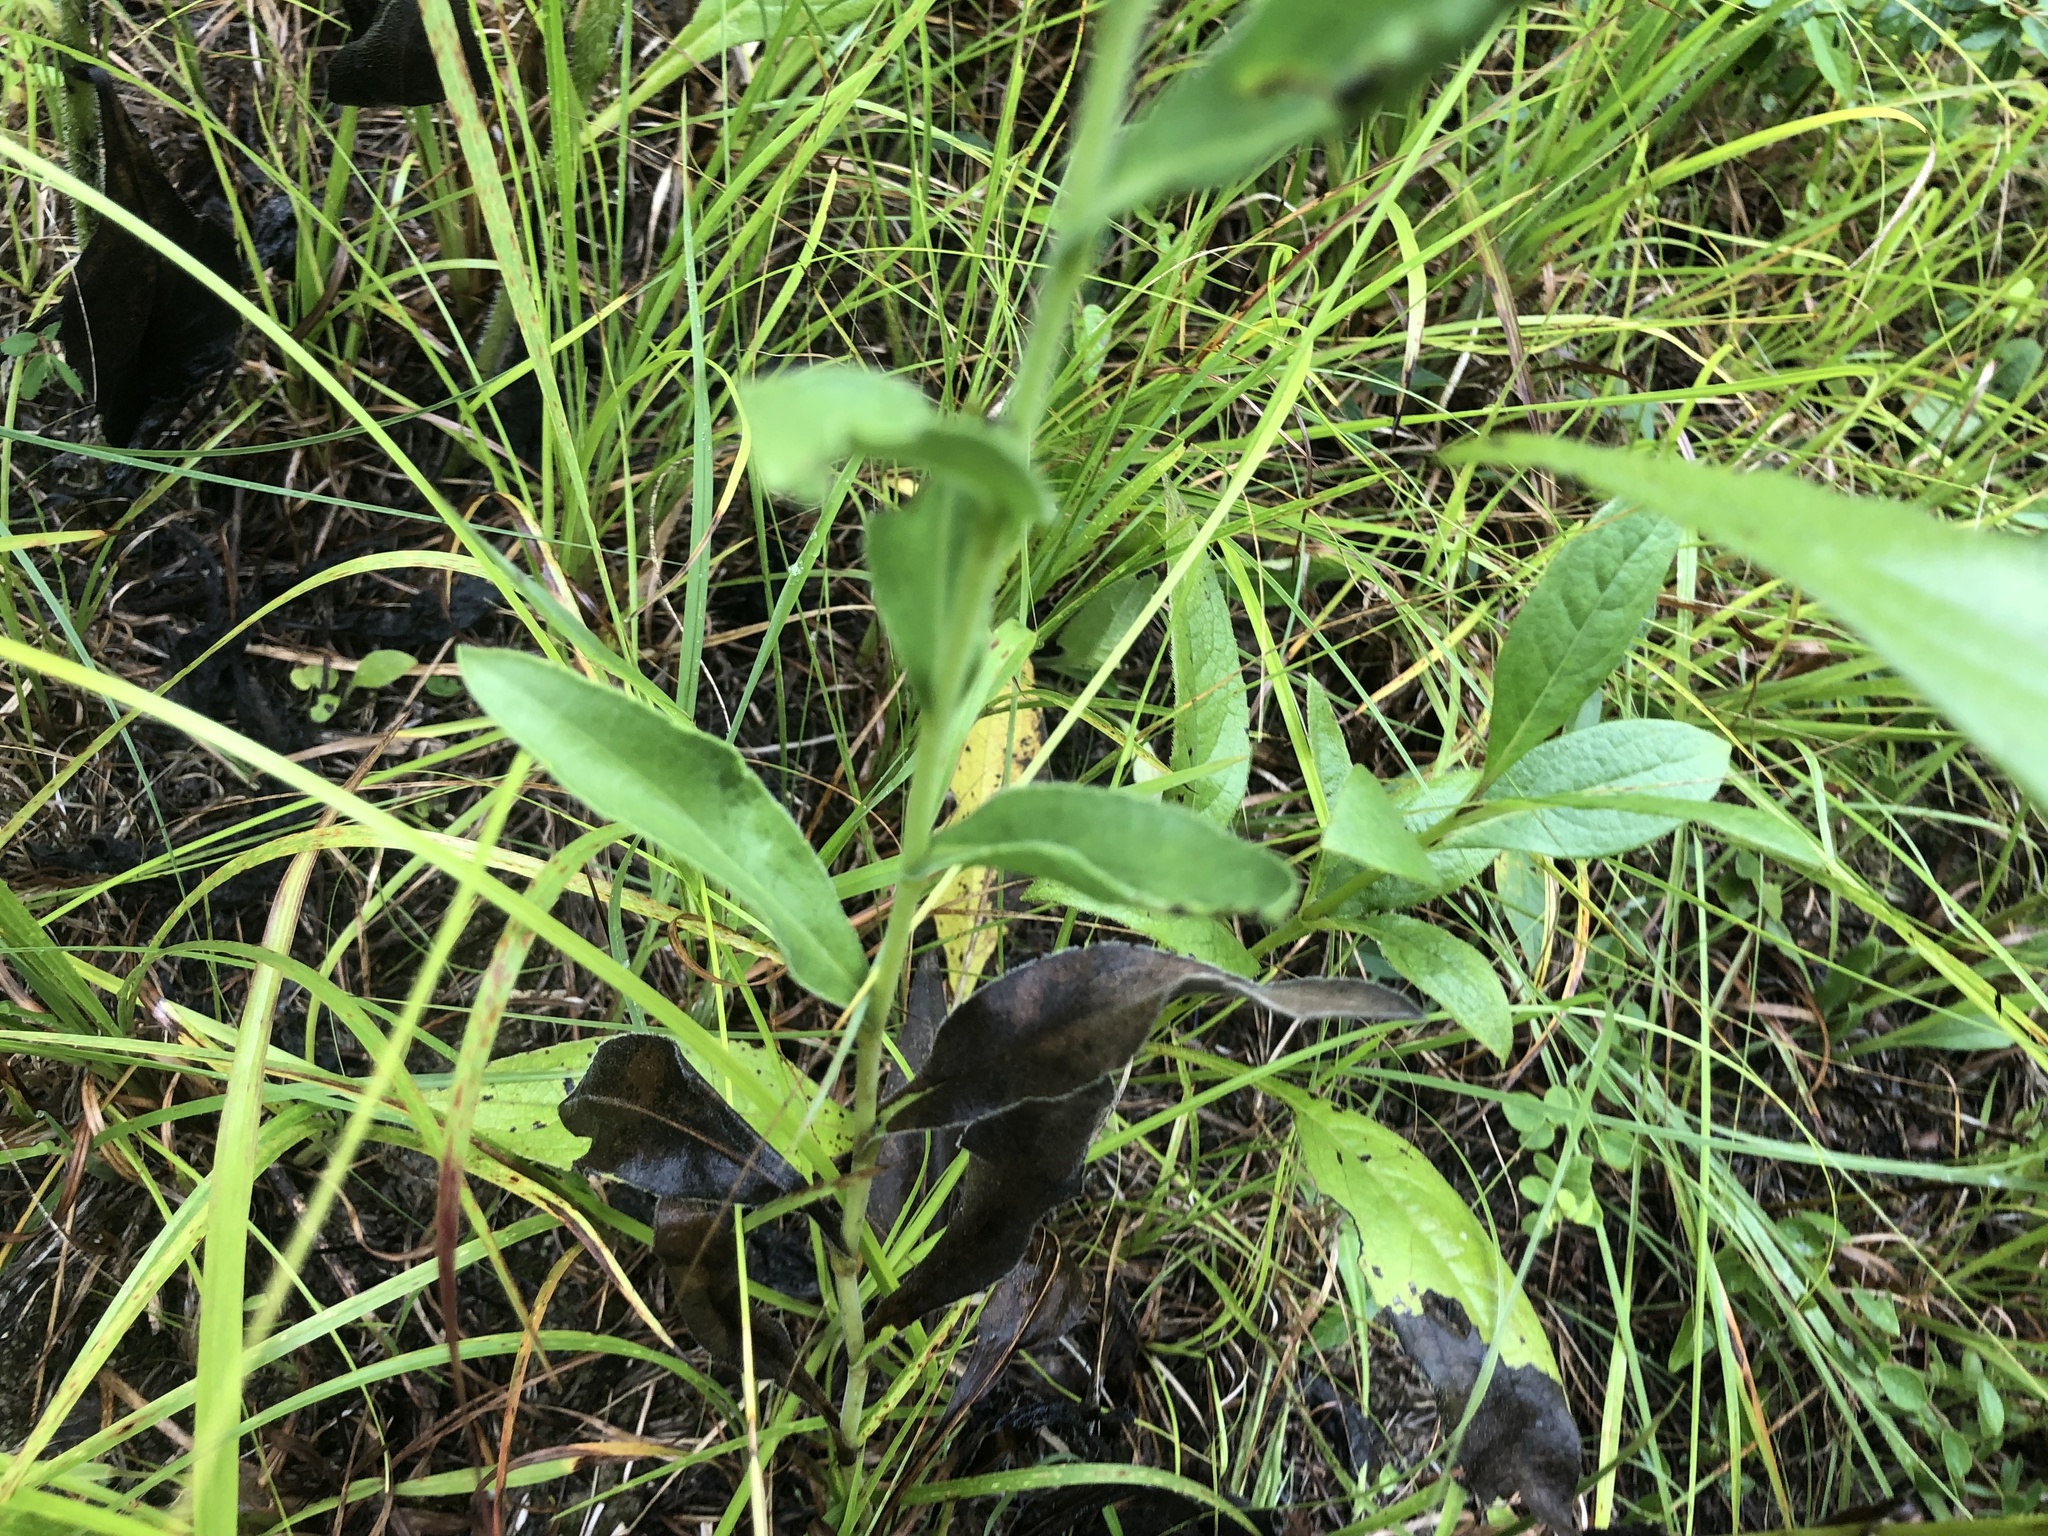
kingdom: Plantae
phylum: Tracheophyta
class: Magnoliopsida
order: Asterales
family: Asteraceae
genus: Solidago
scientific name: Solidago rigida
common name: Rigid goldenrod
